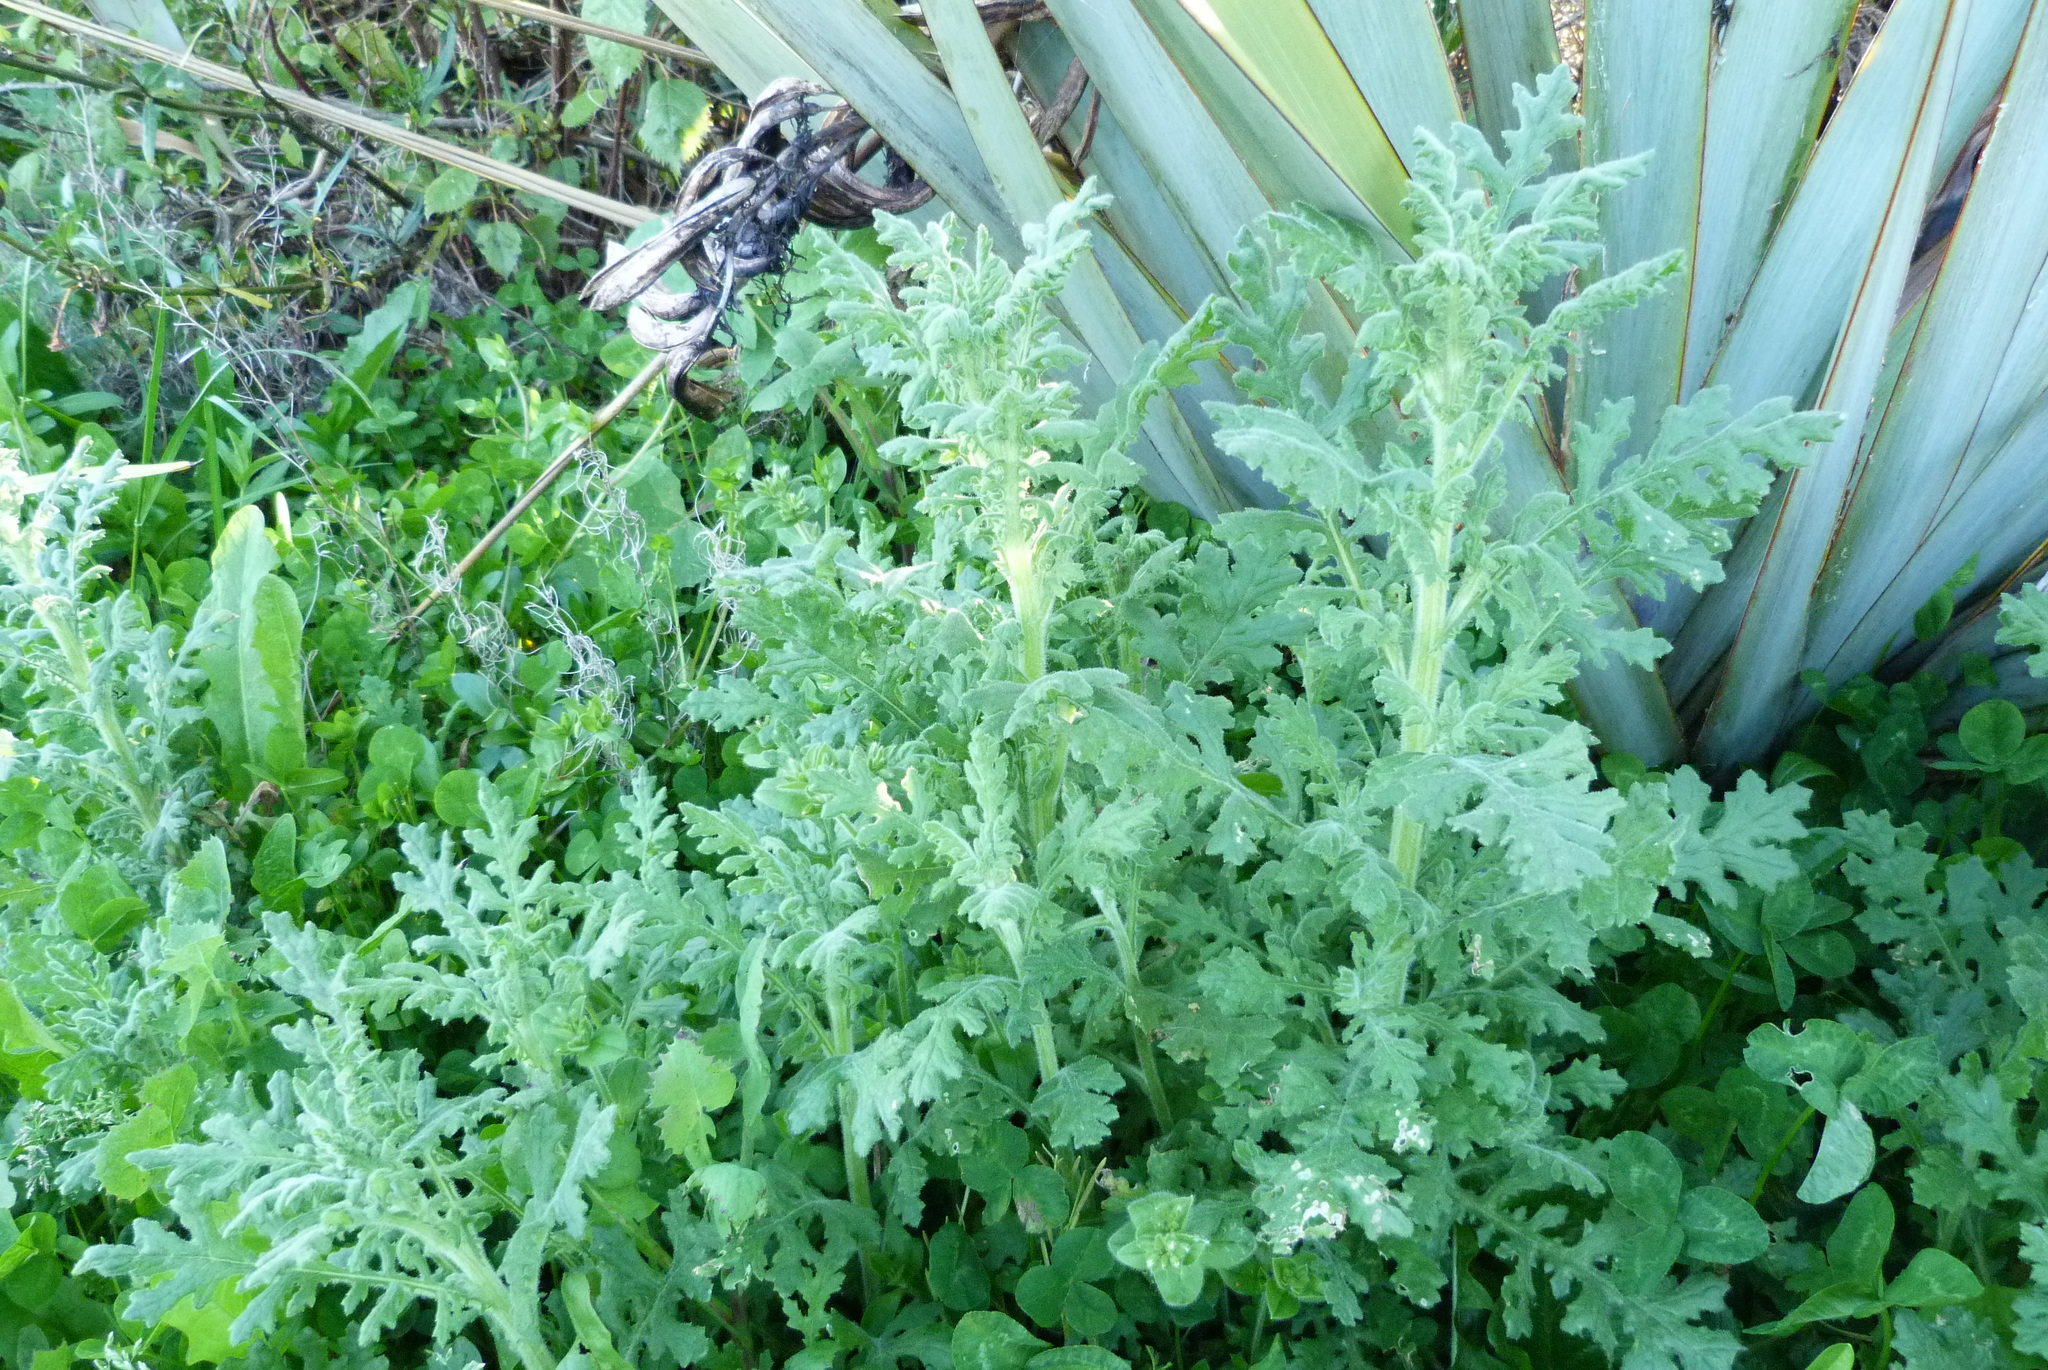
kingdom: Plantae
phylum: Tracheophyta
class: Magnoliopsida
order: Asterales
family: Asteraceae
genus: Senecio
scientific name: Senecio sylvaticus
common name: Woodland ragwort
